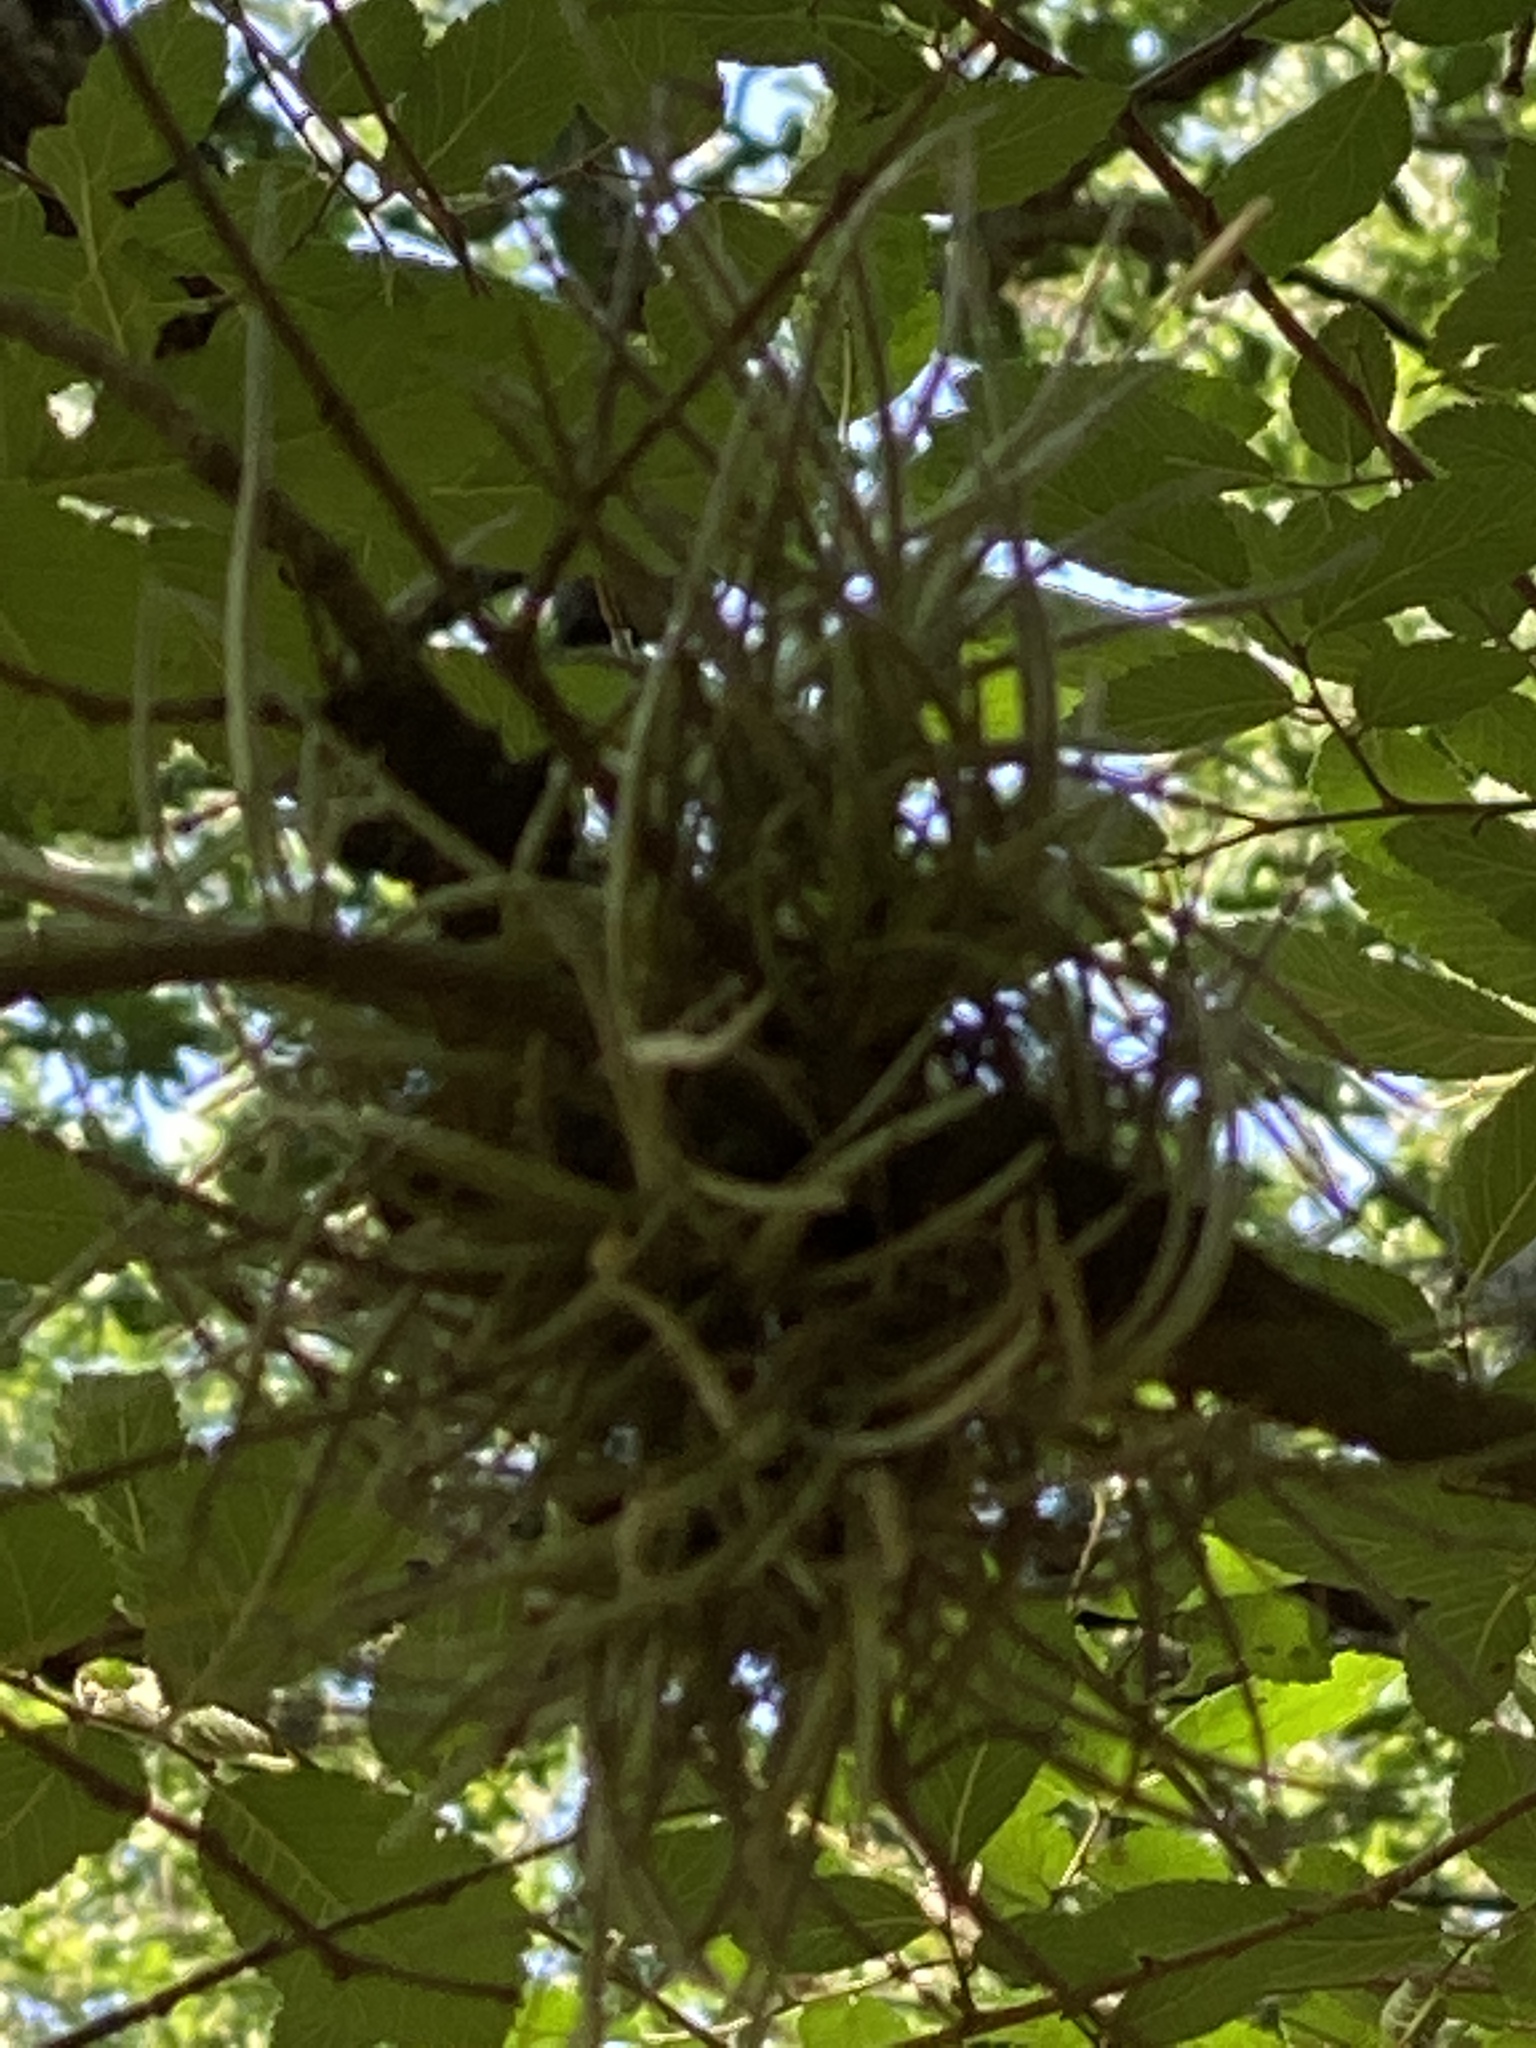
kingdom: Plantae
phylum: Tracheophyta
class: Liliopsida
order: Poales
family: Bromeliaceae
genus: Tillandsia
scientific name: Tillandsia recurvata
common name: Small ballmoss
